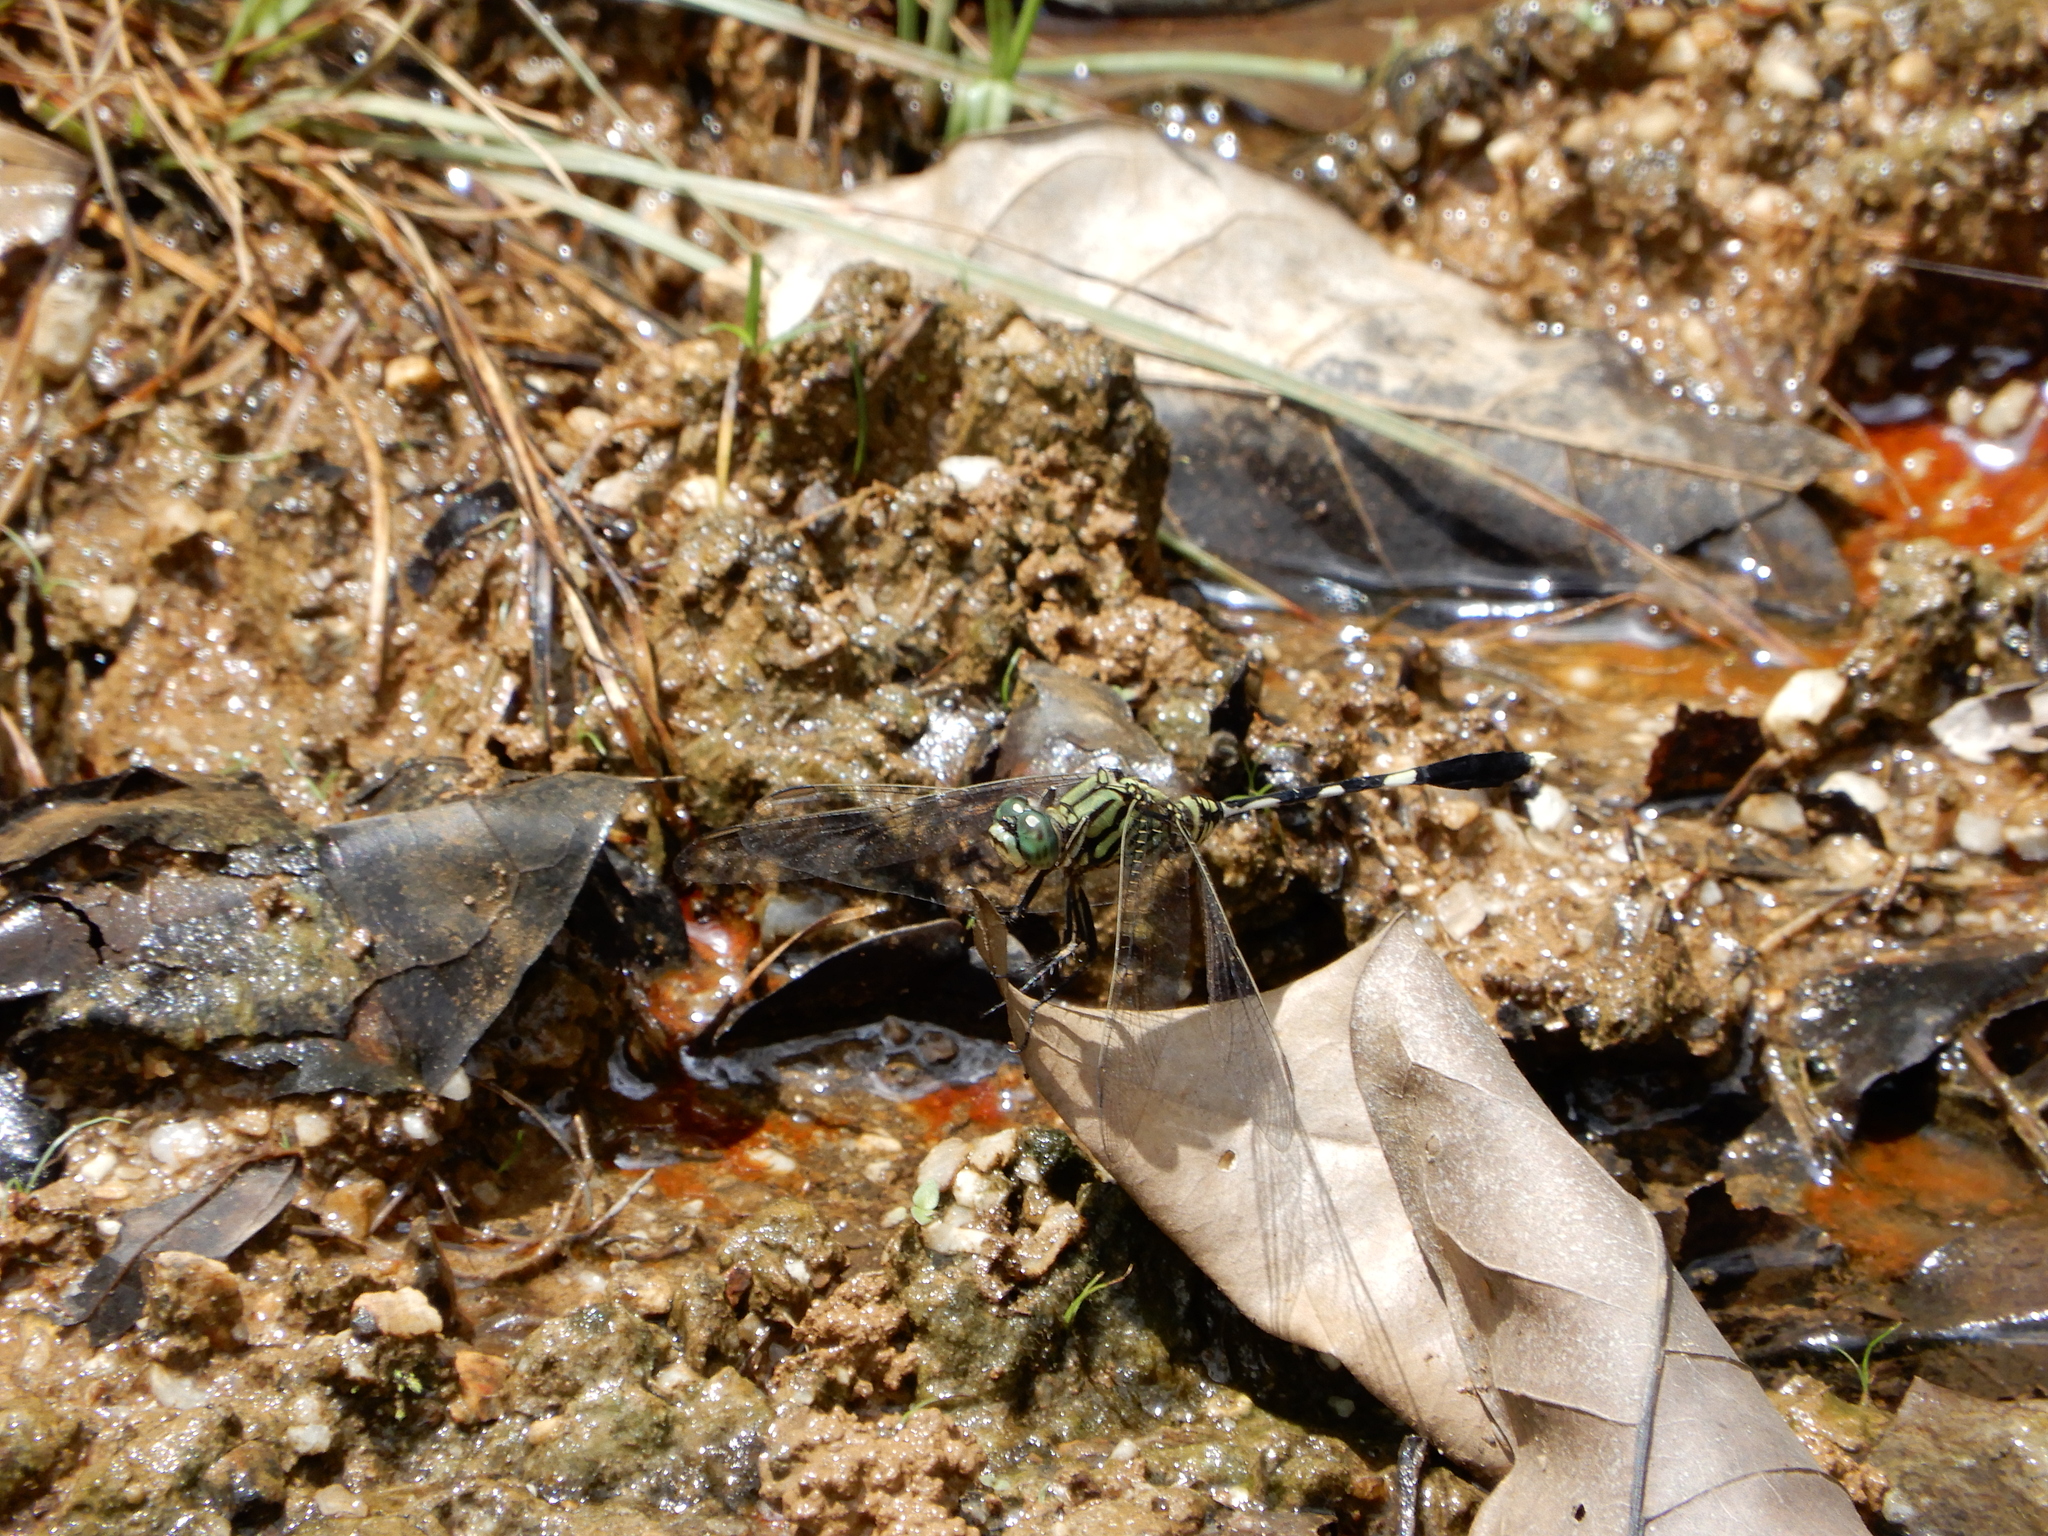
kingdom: Animalia
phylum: Arthropoda
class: Insecta
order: Odonata
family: Libellulidae
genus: Orthetrum
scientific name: Orthetrum sabina
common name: Slender skimmer
